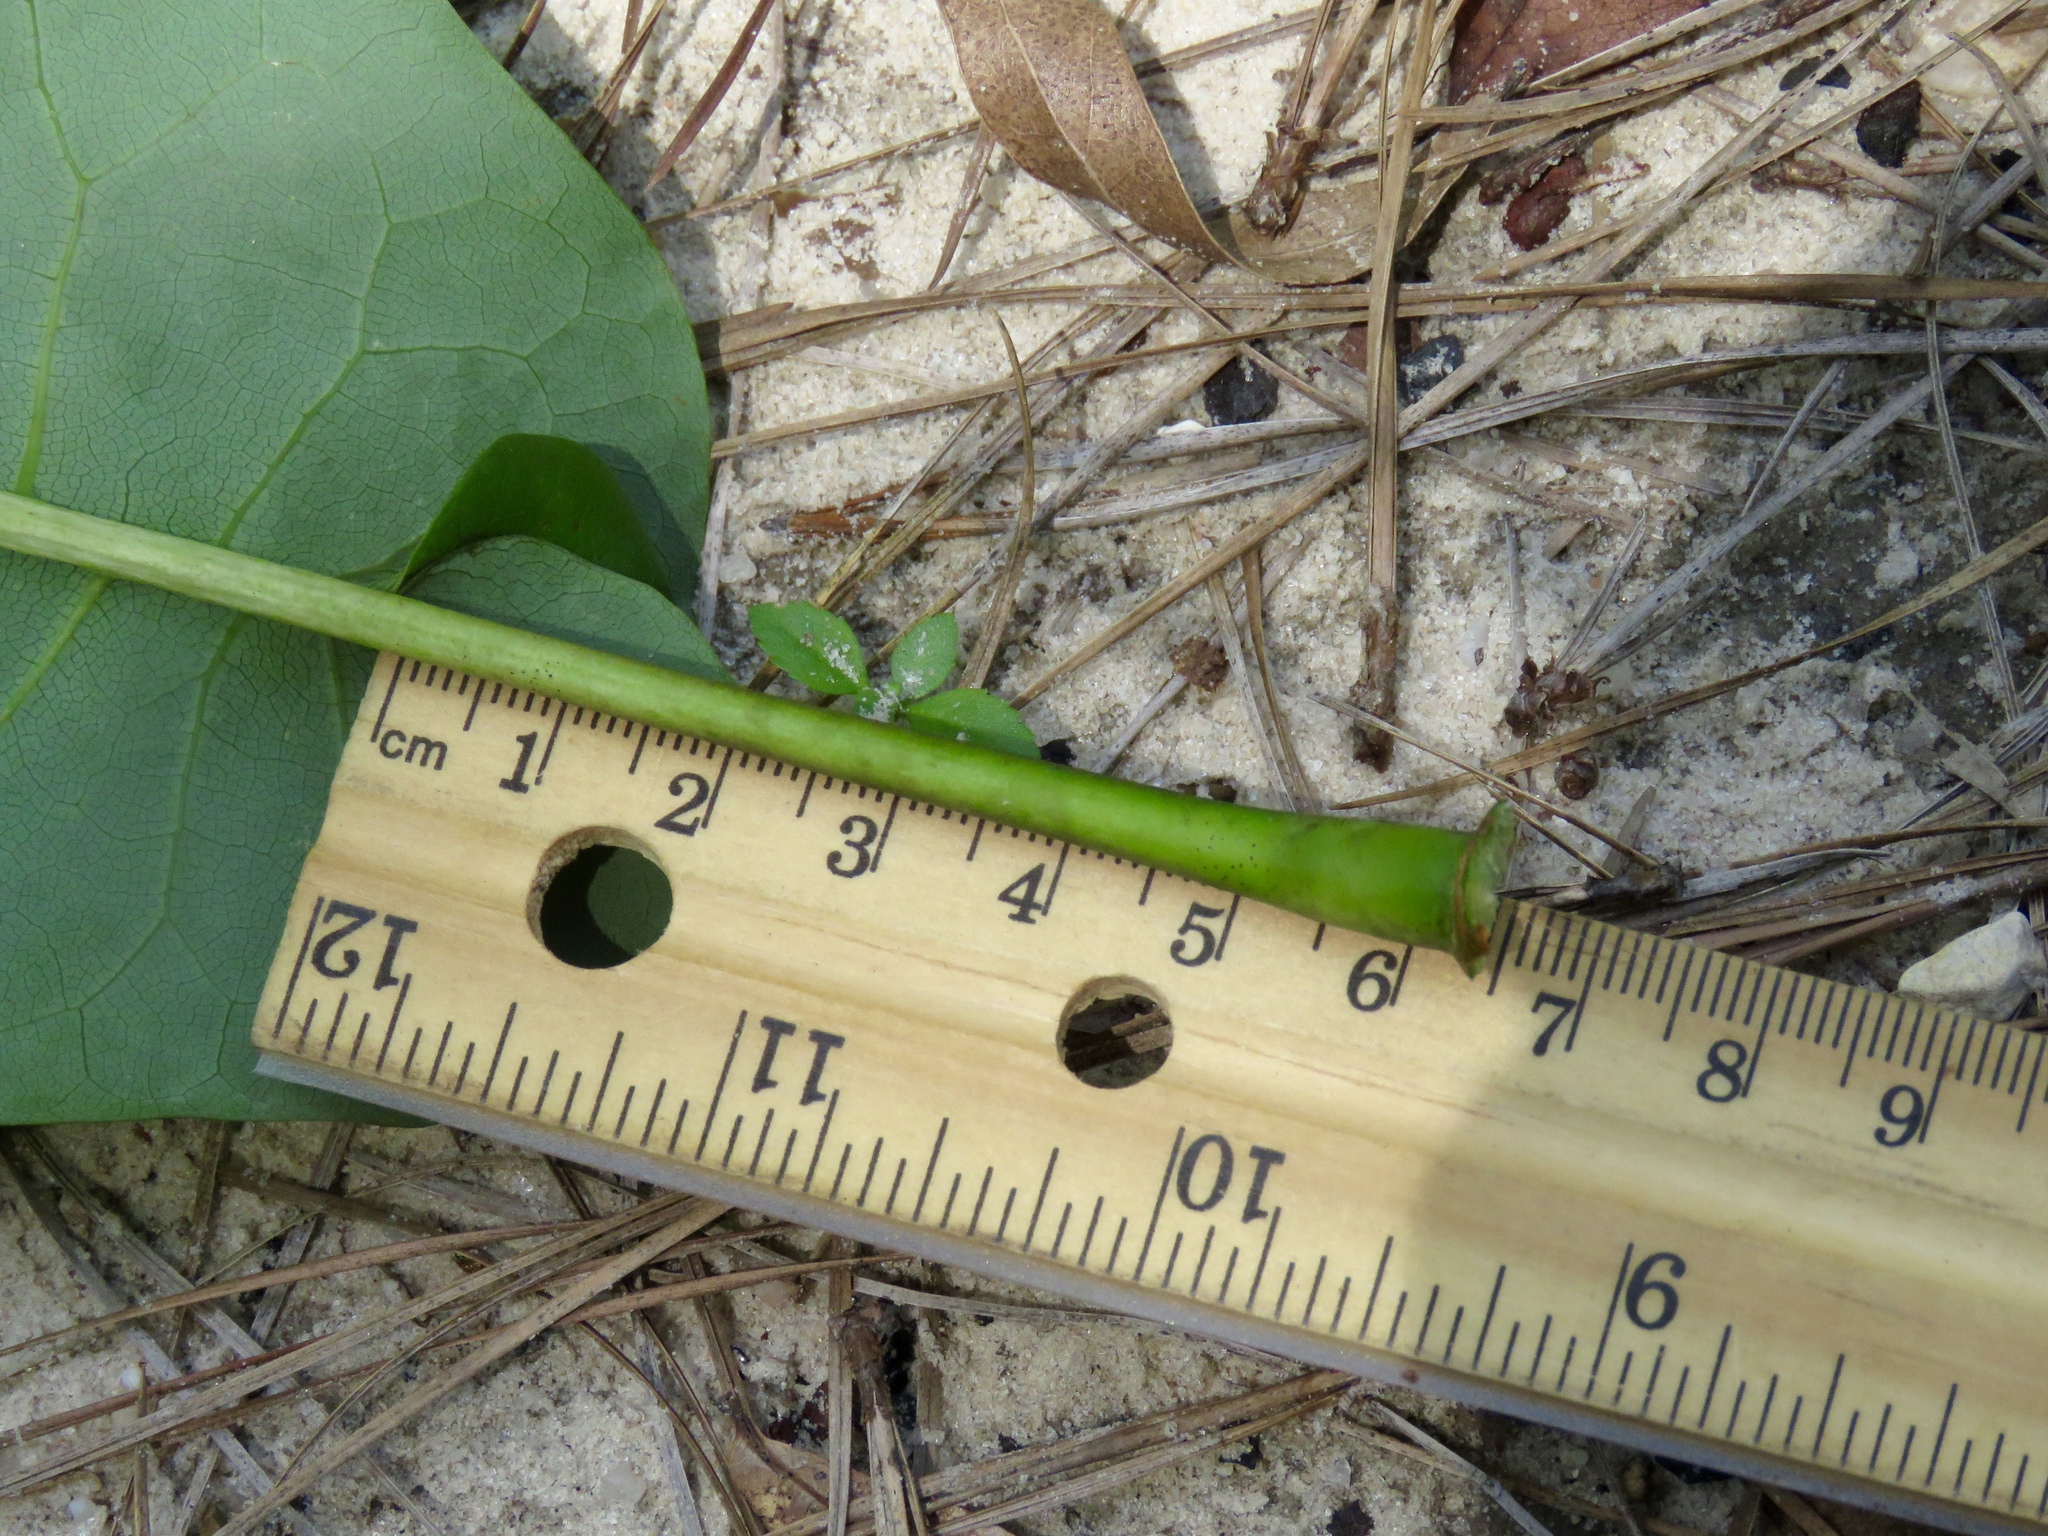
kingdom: Plantae
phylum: Tracheophyta
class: Magnoliopsida
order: Magnoliales
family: Magnoliaceae
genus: Magnolia
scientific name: Magnolia fraseri
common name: Fraser's magnolia
